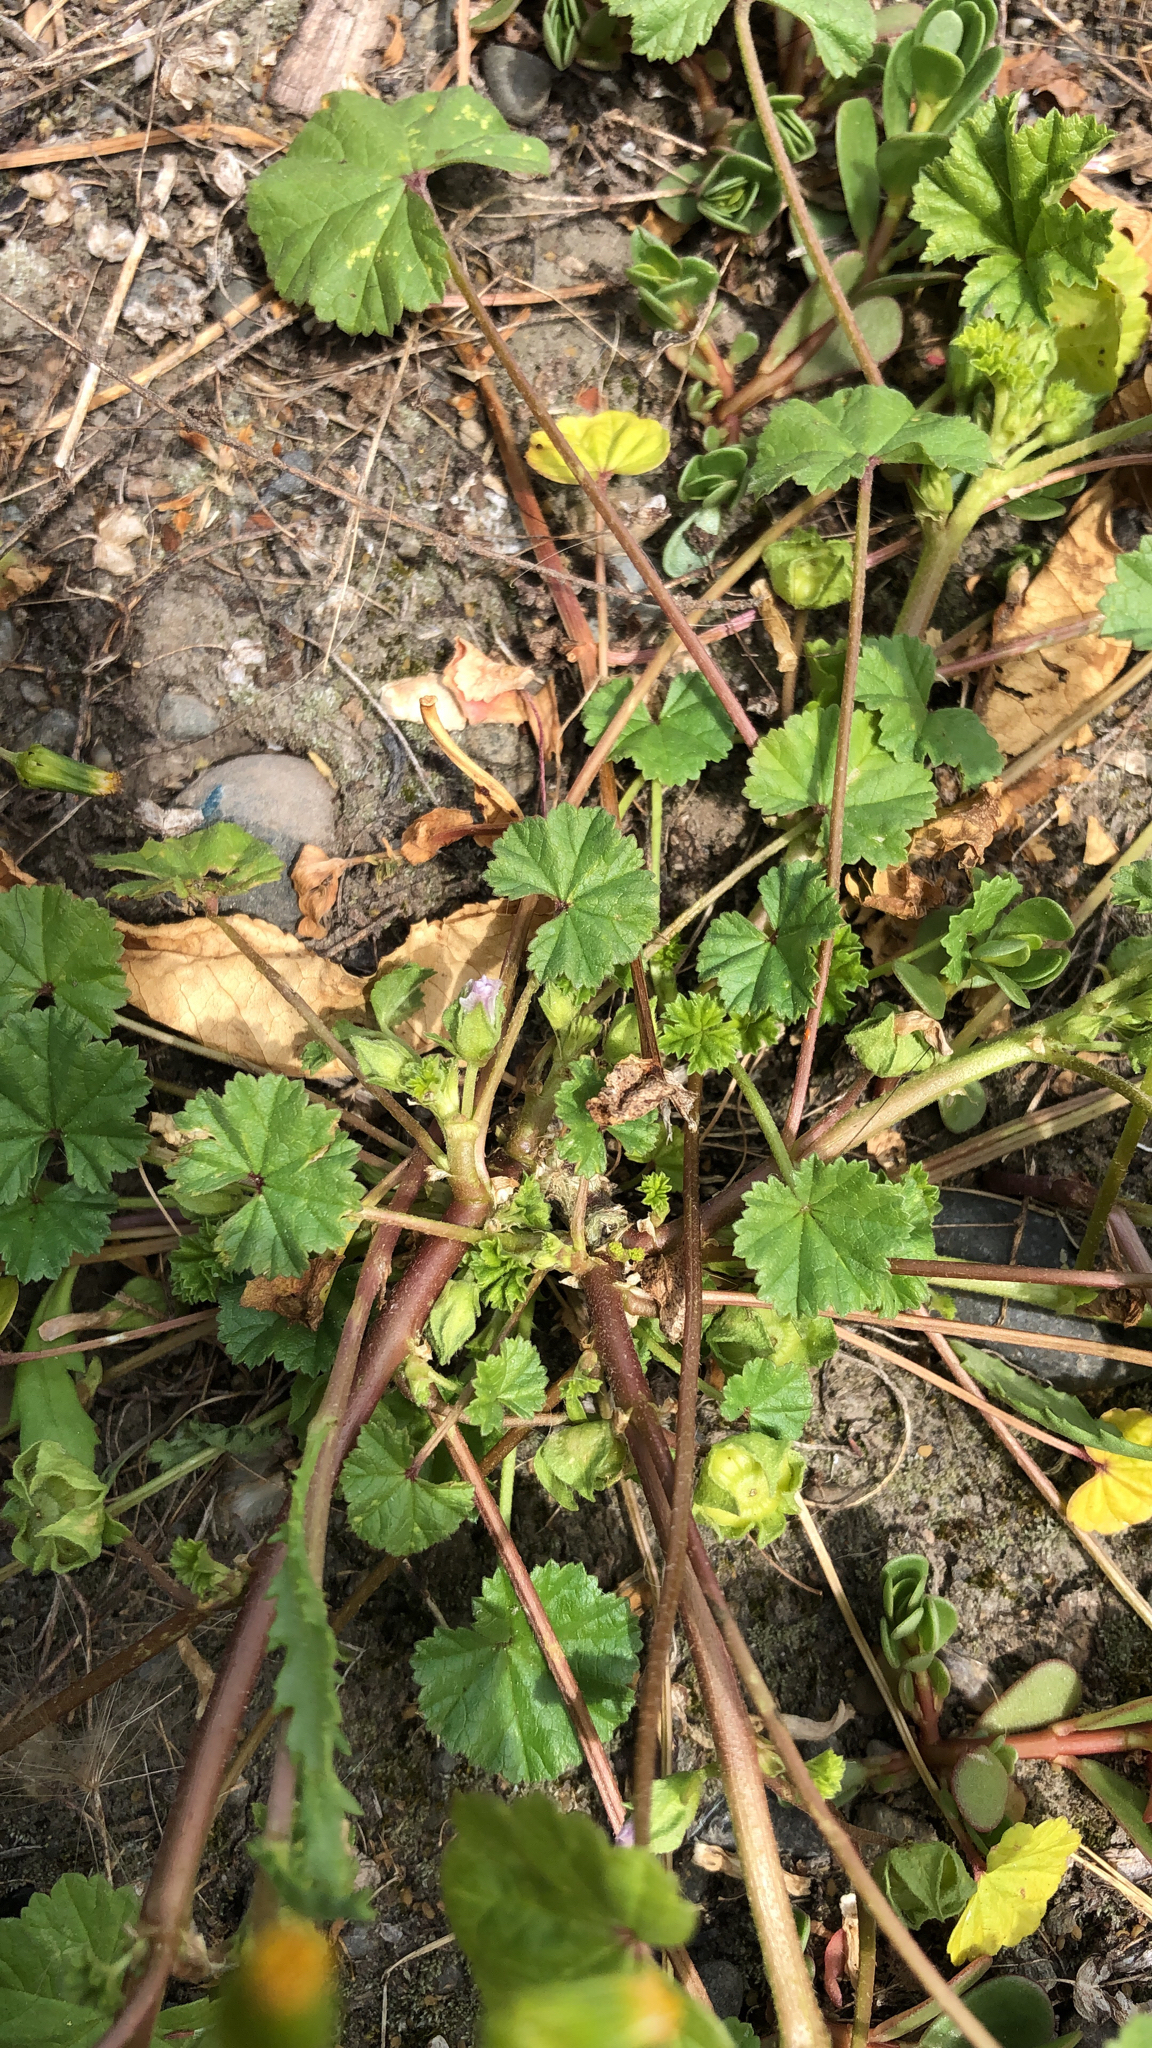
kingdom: Plantae
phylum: Tracheophyta
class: Magnoliopsida
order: Malvales
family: Malvaceae
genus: Malva
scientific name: Malva neglecta
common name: Common mallow
